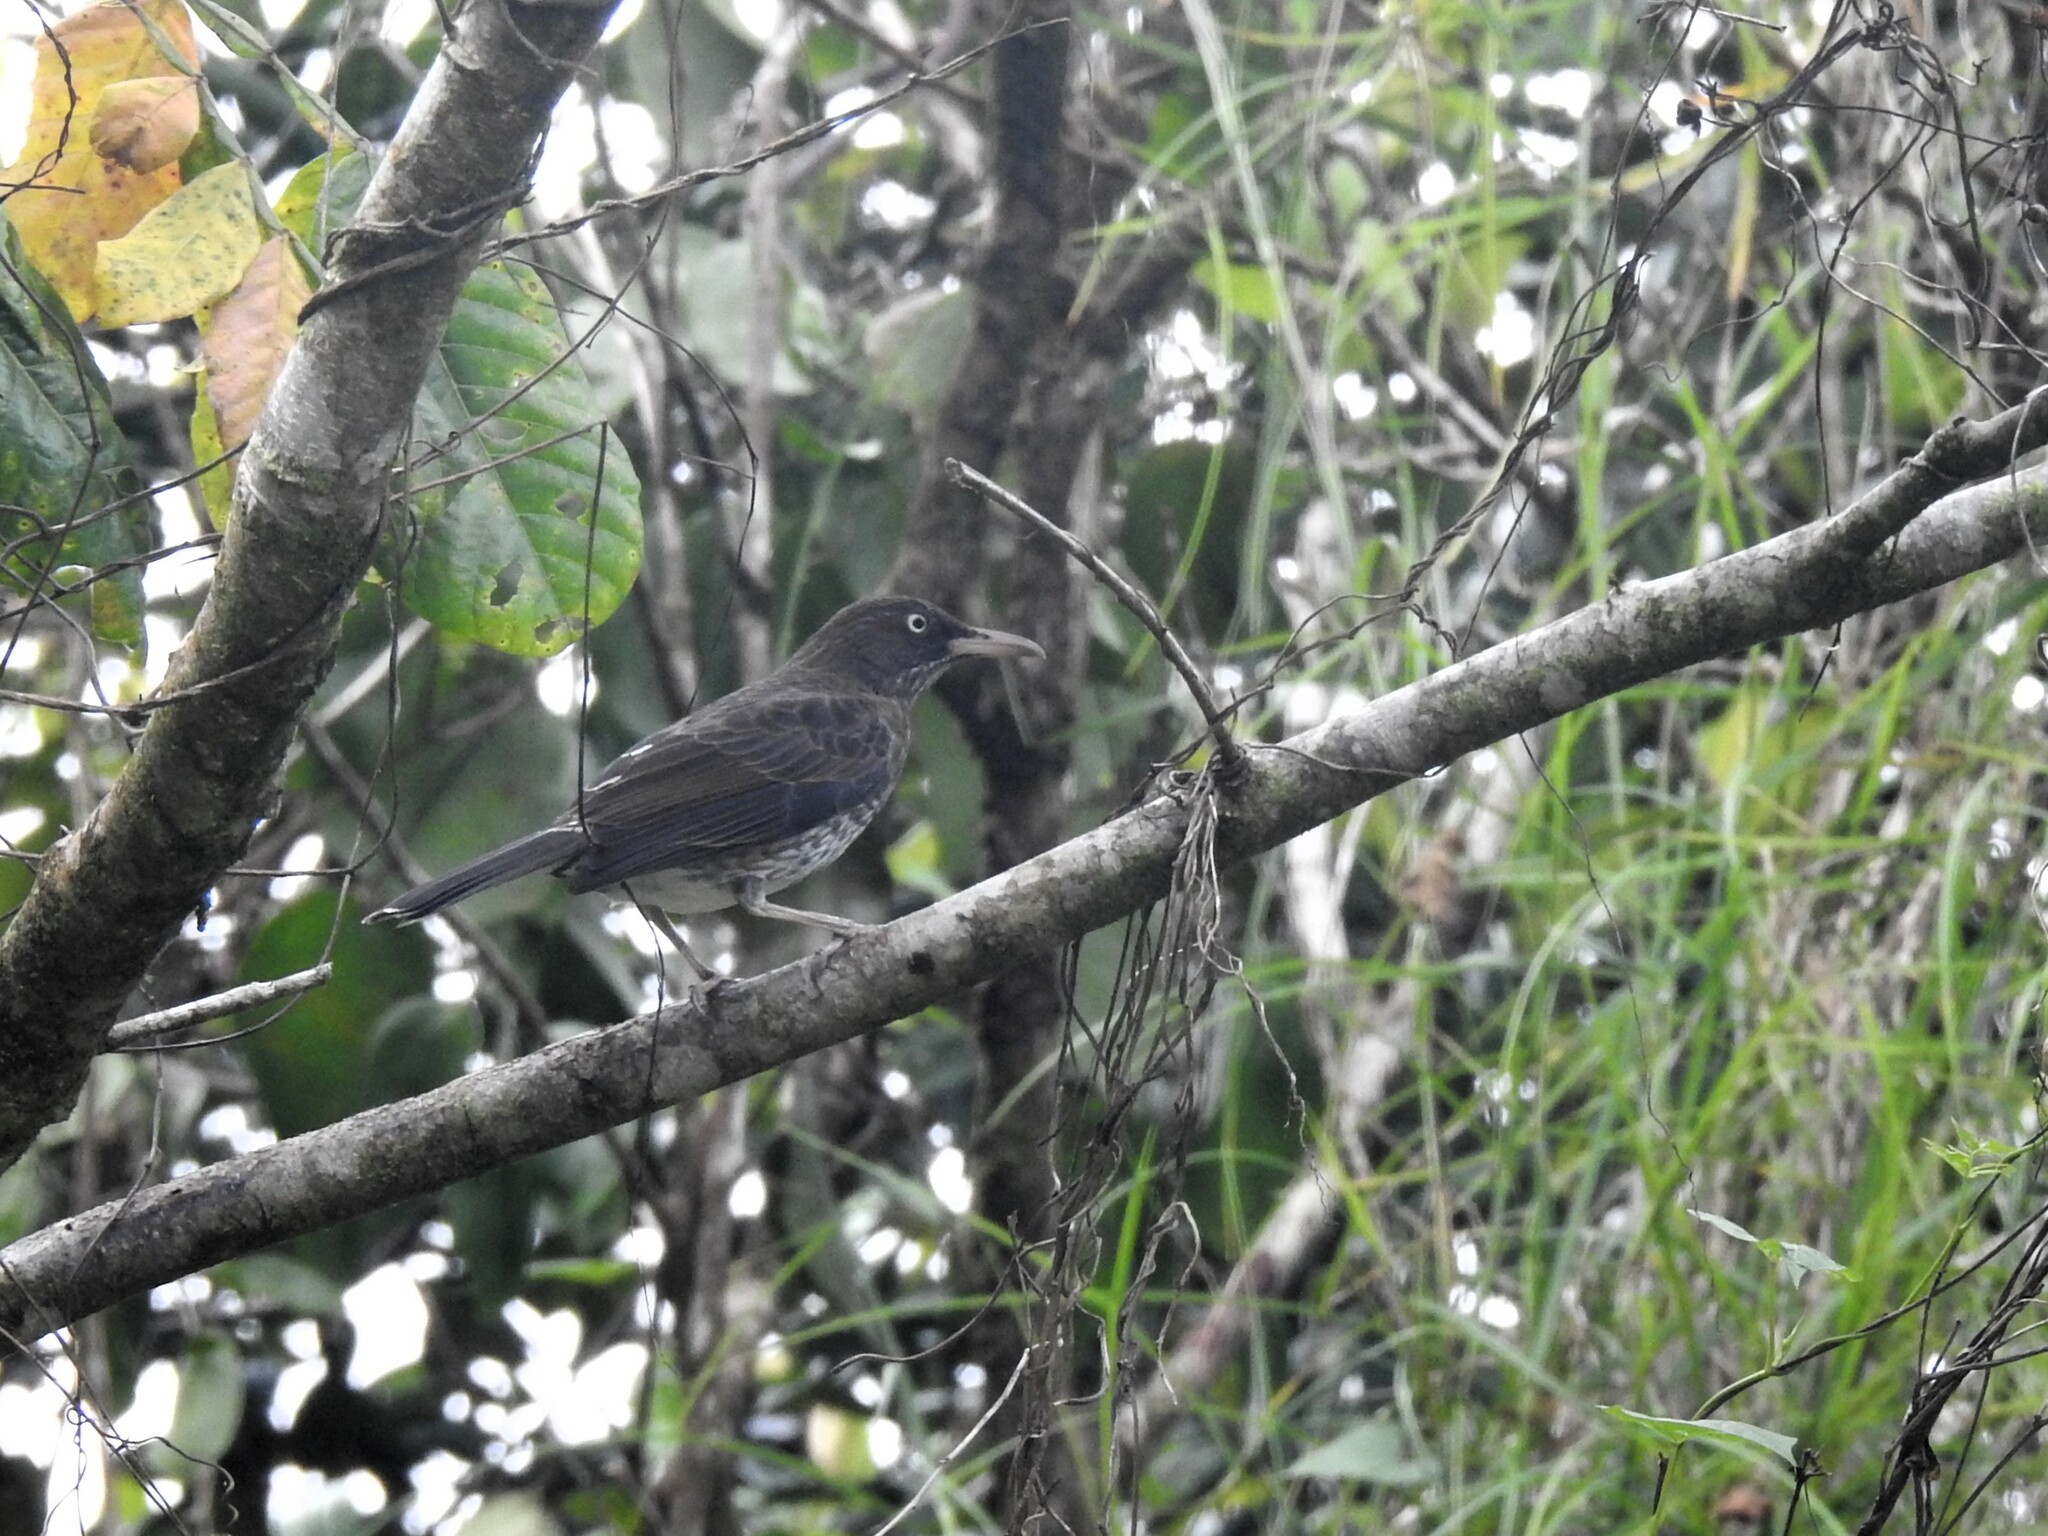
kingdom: Animalia
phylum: Chordata
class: Aves
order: Passeriformes
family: Mimidae
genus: Margarops
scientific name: Margarops fuscatus
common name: Pearly-eyed thrasher
